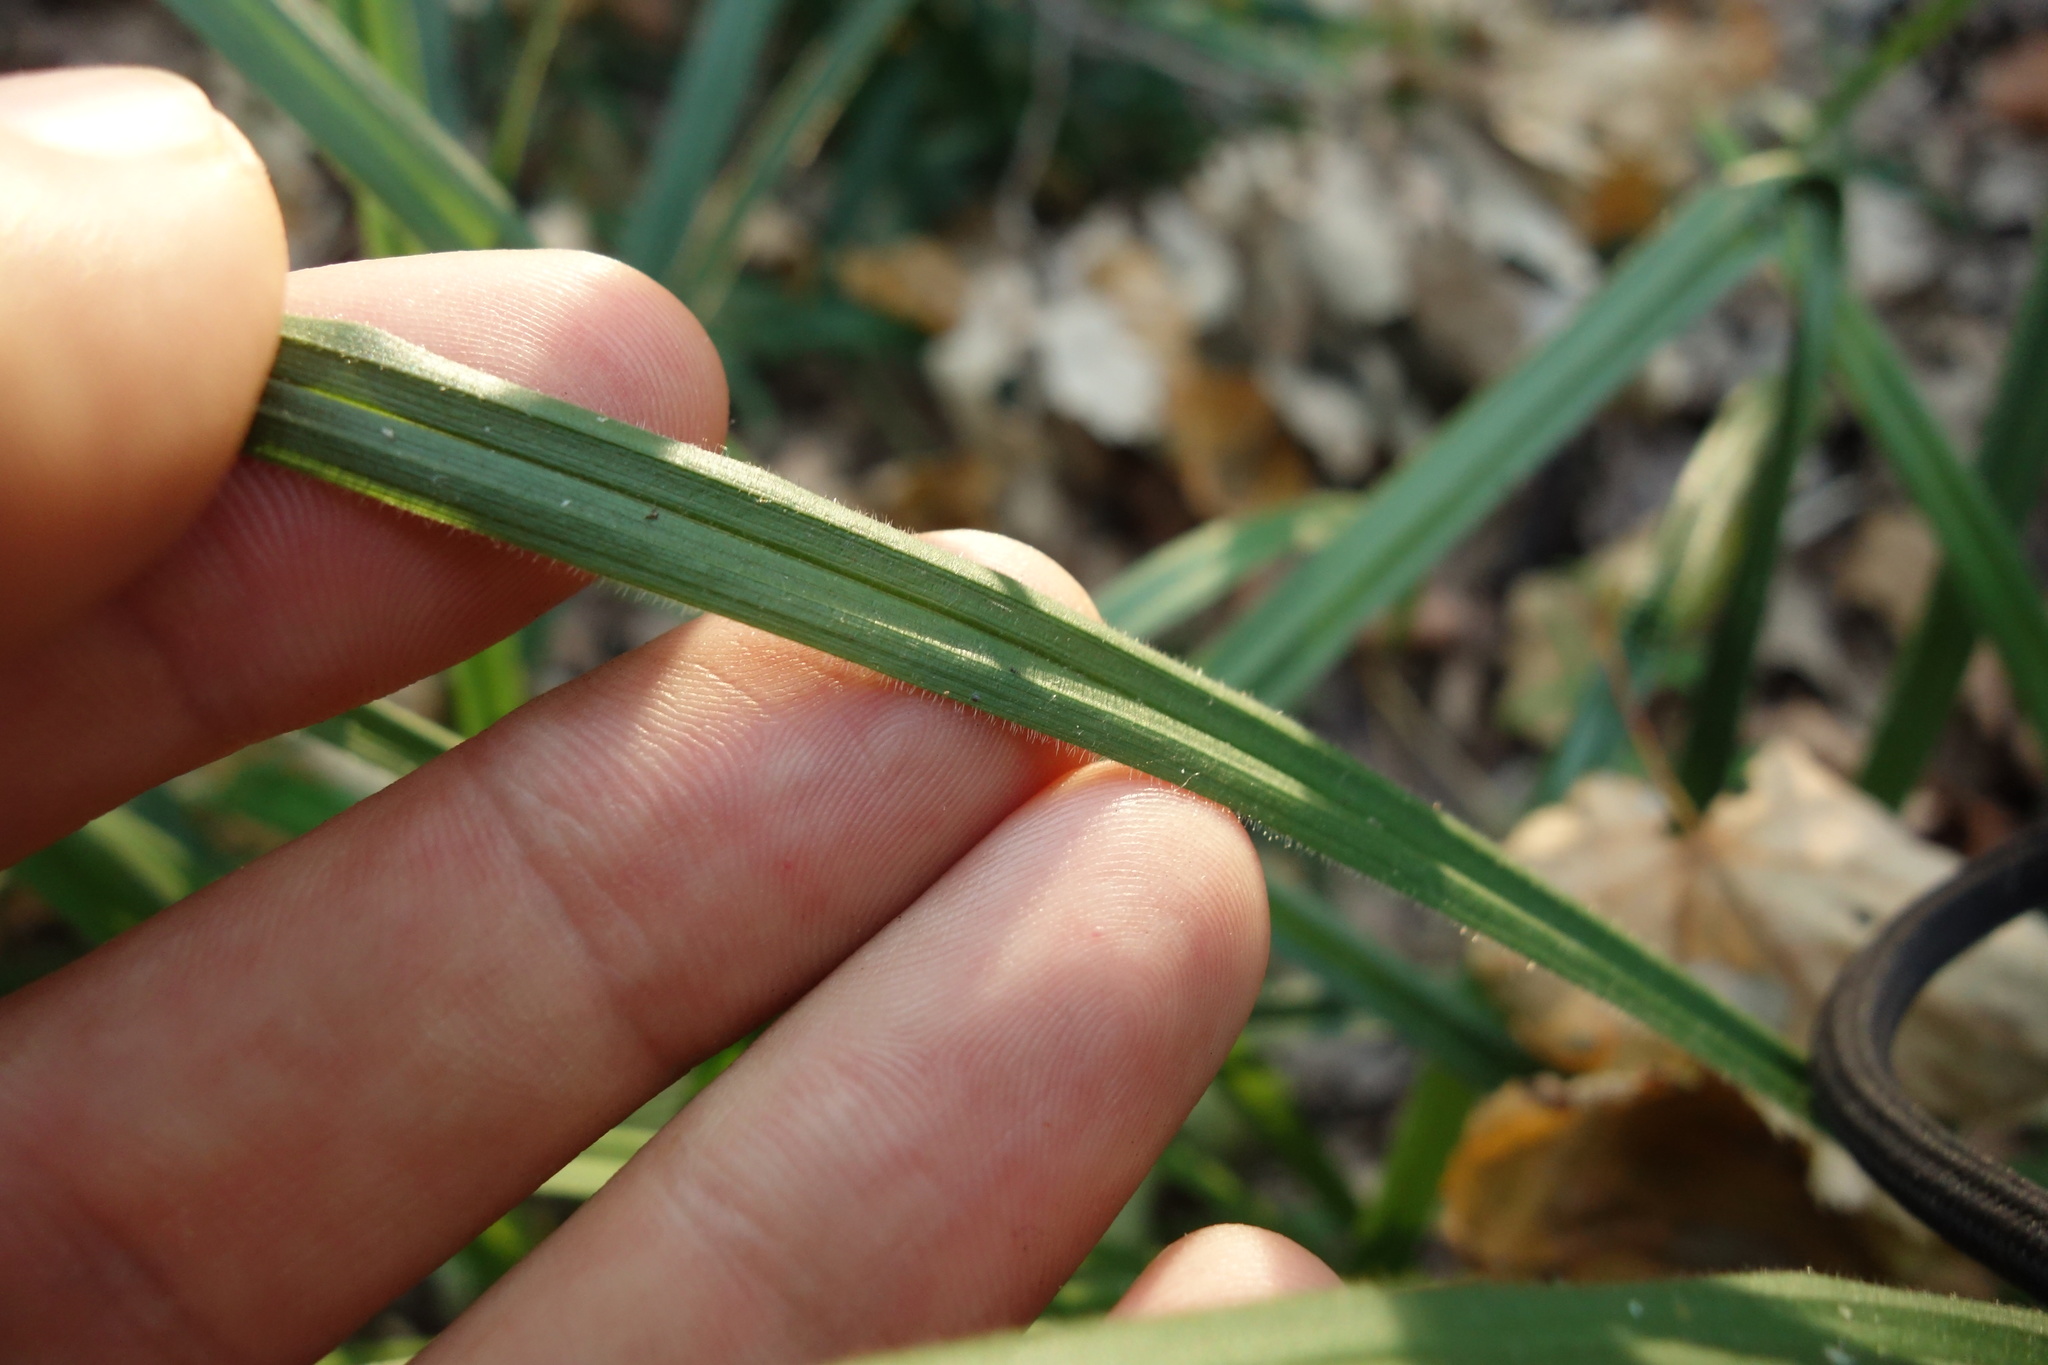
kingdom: Plantae
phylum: Tracheophyta
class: Liliopsida
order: Poales
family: Cyperaceae
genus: Carex
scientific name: Carex pilosa
